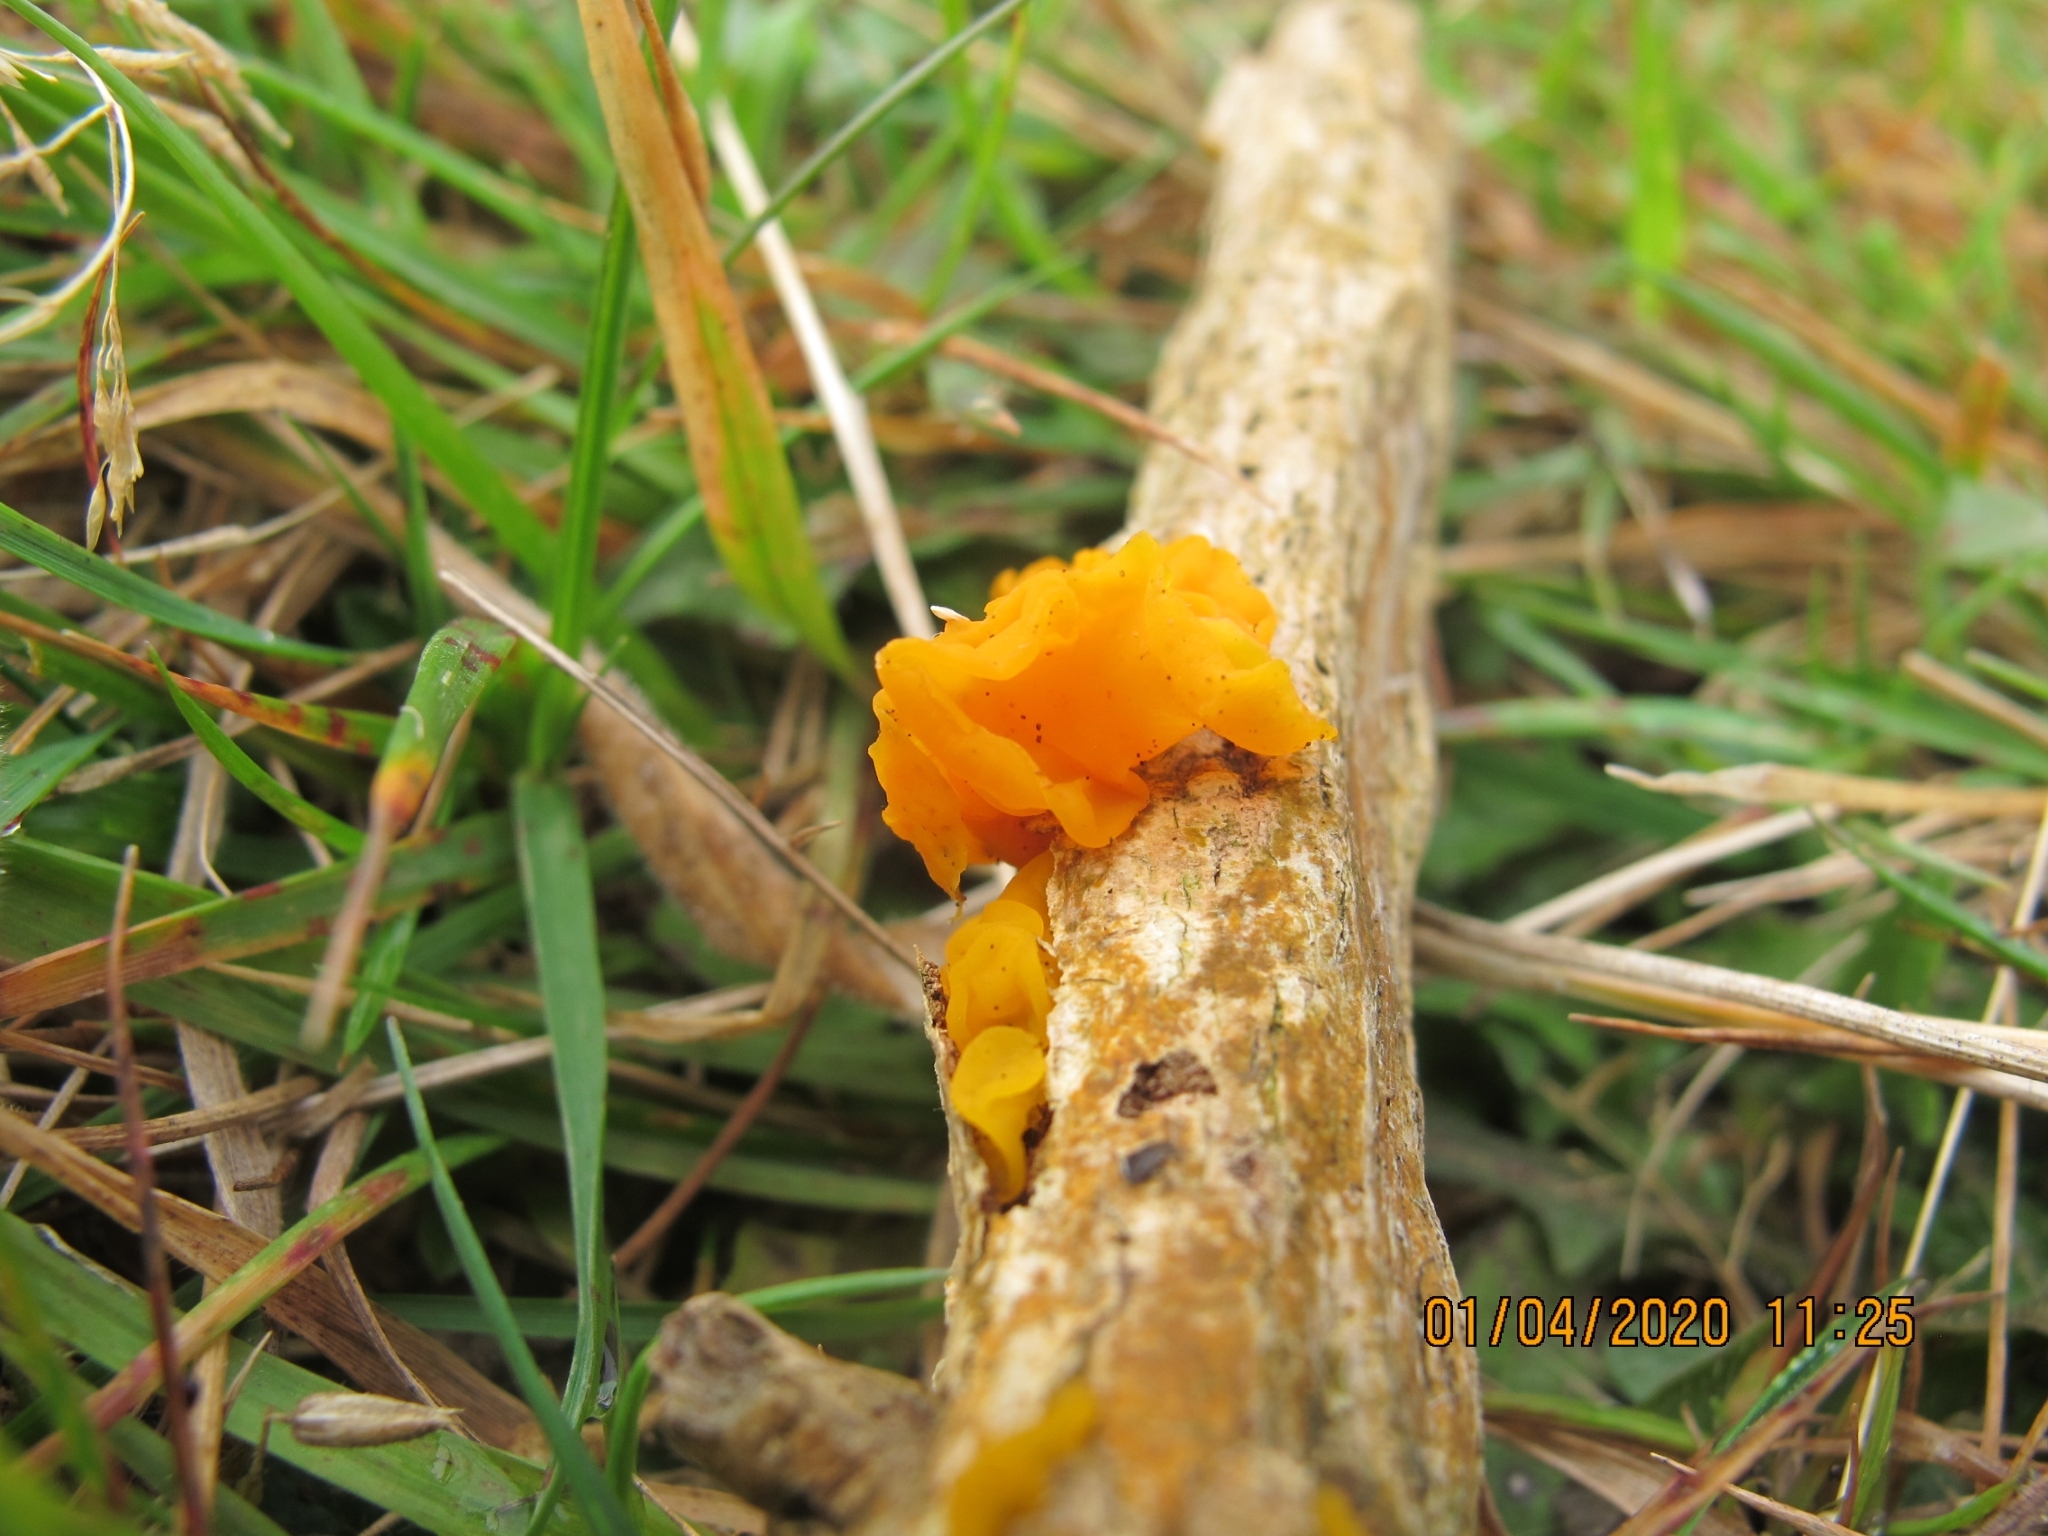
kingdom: Fungi
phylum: Basidiomycota
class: Tremellomycetes
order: Tremellales
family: Tremellaceae
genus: Tremella
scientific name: Tremella mesenterica
